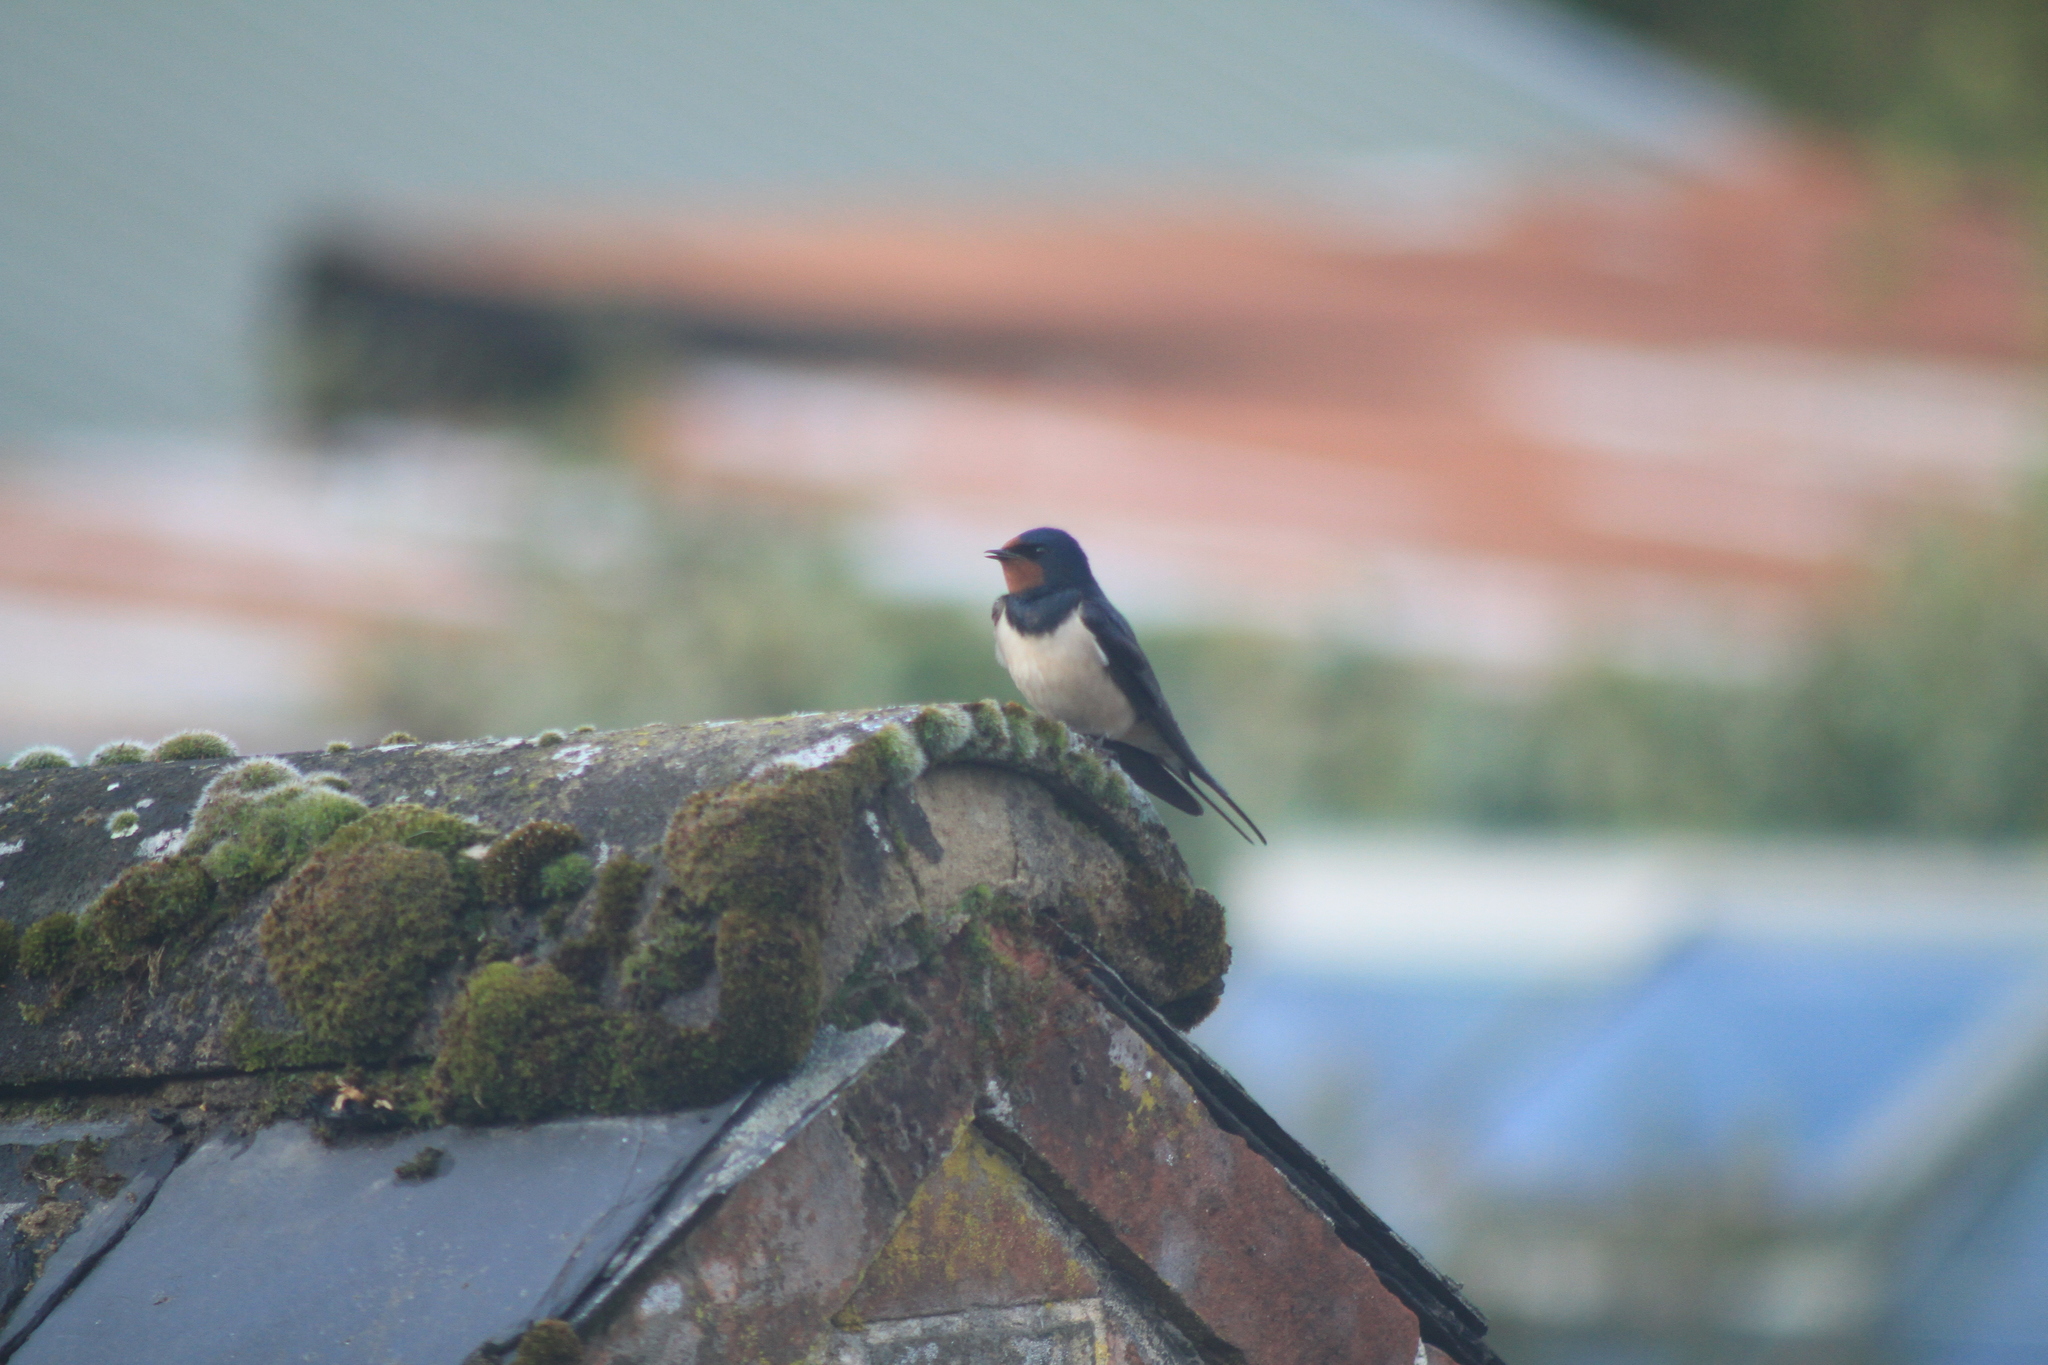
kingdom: Animalia
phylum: Chordata
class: Aves
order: Passeriformes
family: Hirundinidae
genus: Hirundo
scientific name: Hirundo rustica
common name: Barn swallow
